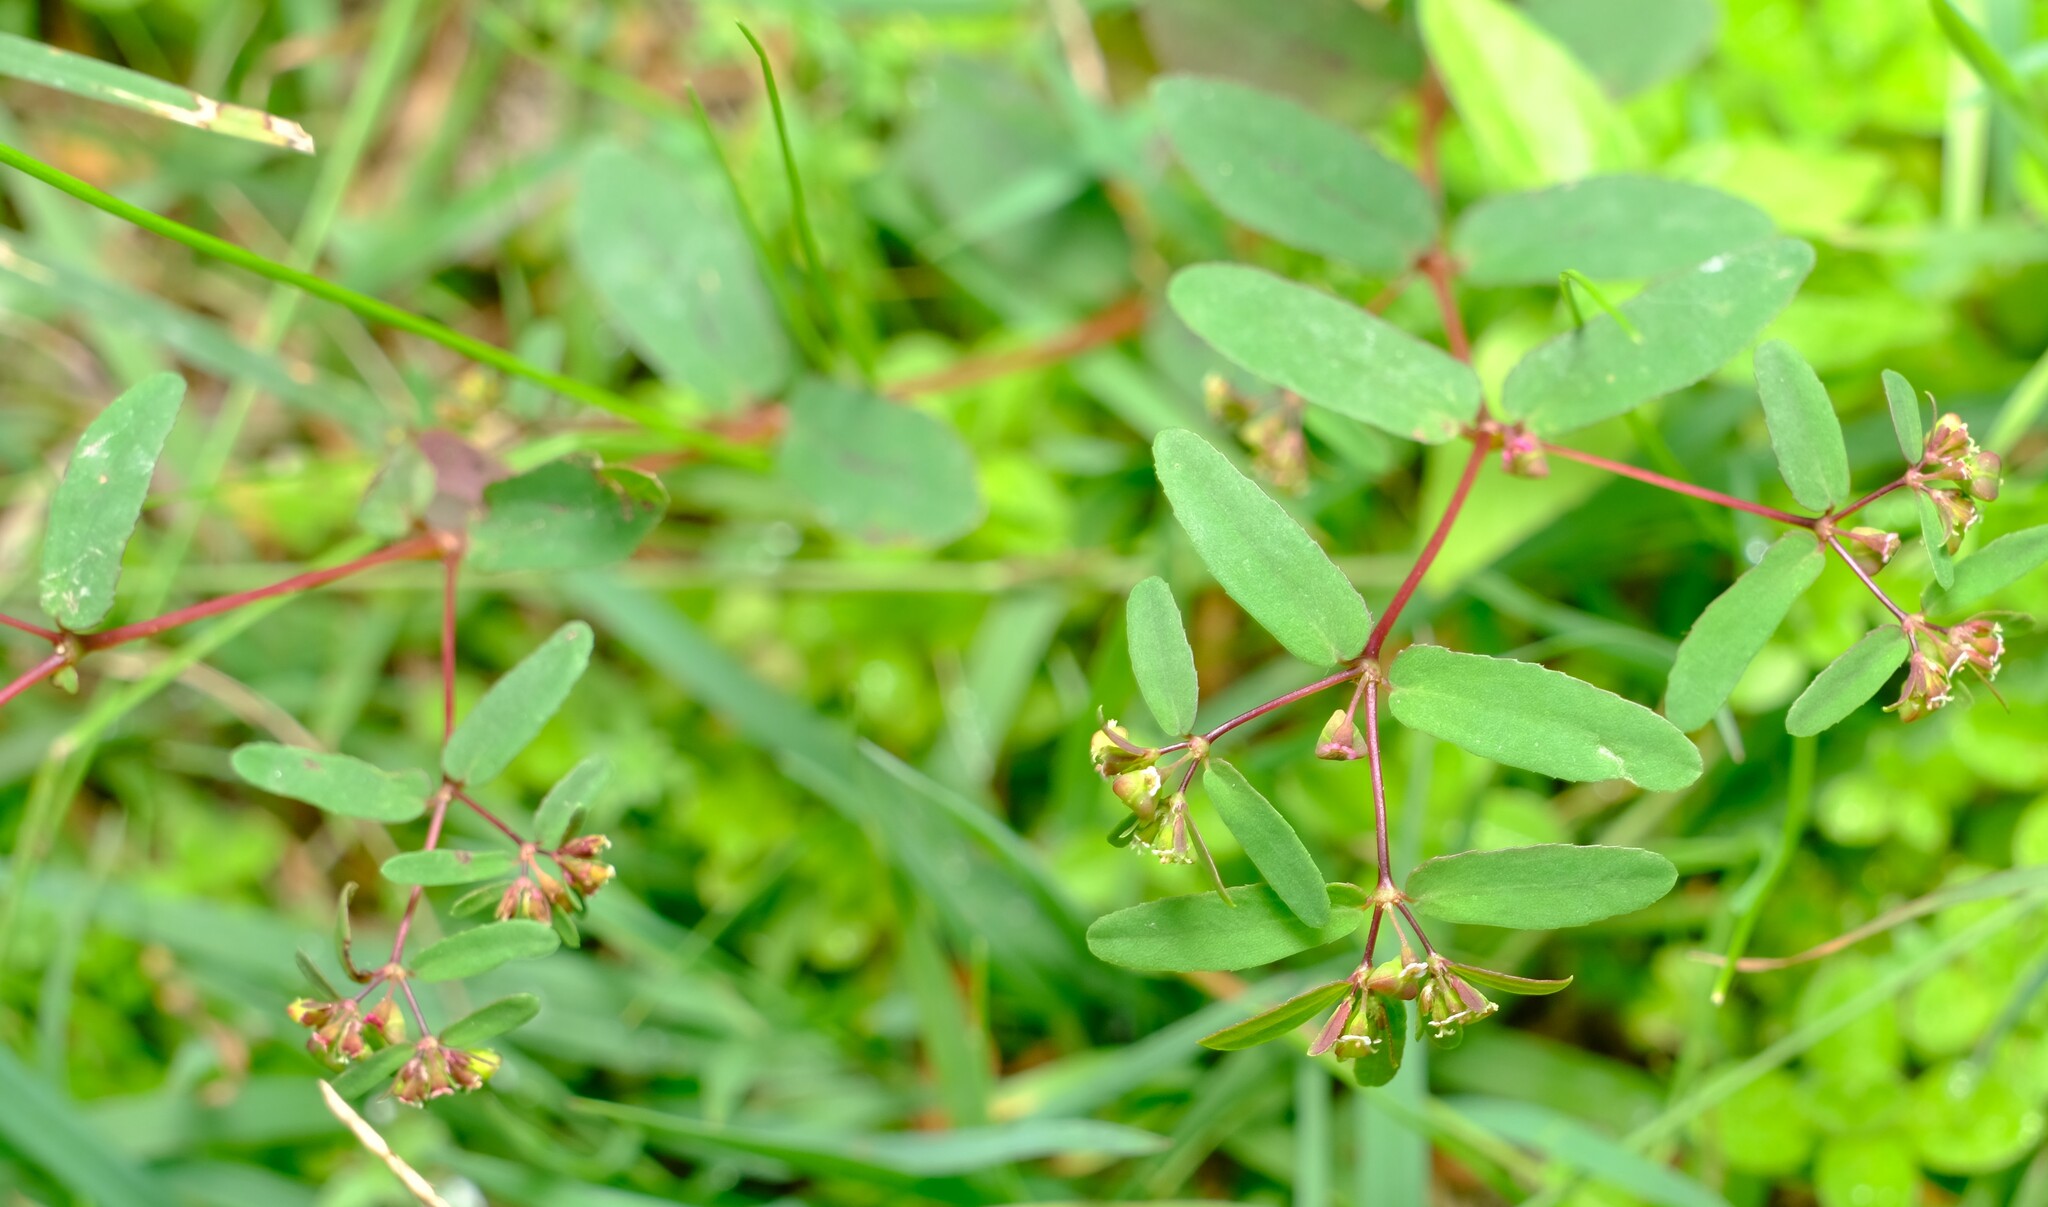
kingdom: Plantae
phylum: Tracheophyta
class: Magnoliopsida
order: Malpighiales
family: Euphorbiaceae
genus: Euphorbia
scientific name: Euphorbia hyssopifolia
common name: Hyssopleaf sandmat
